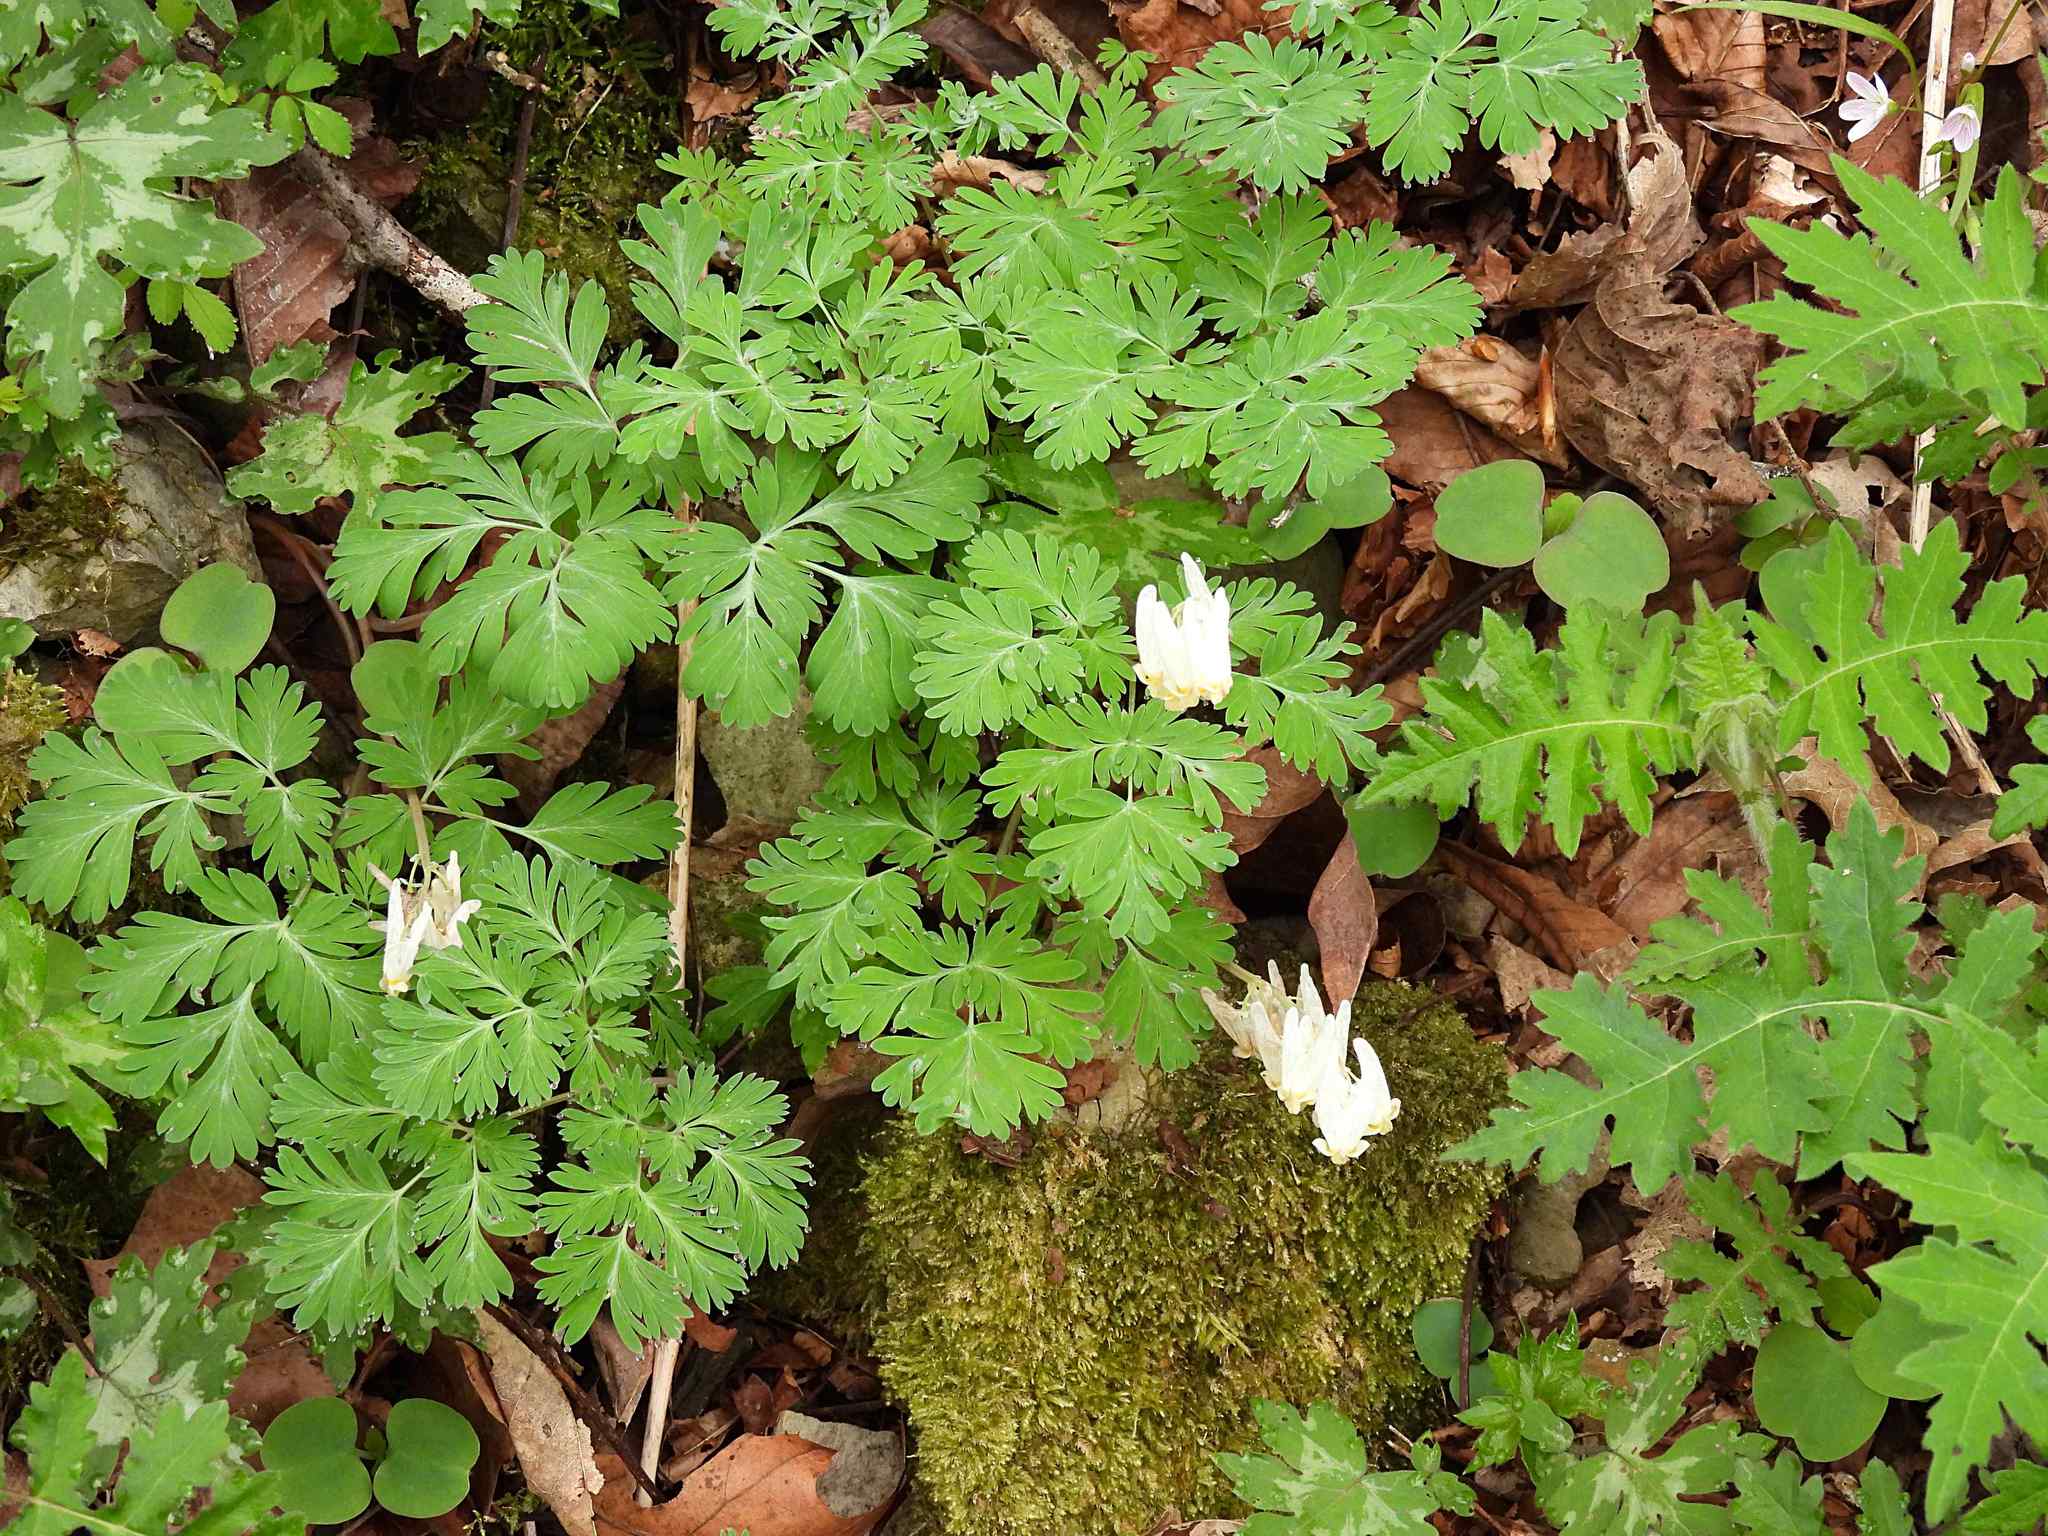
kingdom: Plantae
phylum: Tracheophyta
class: Magnoliopsida
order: Ranunculales
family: Papaveraceae
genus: Dicentra
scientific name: Dicentra cucullaria
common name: Dutchman's breeches
